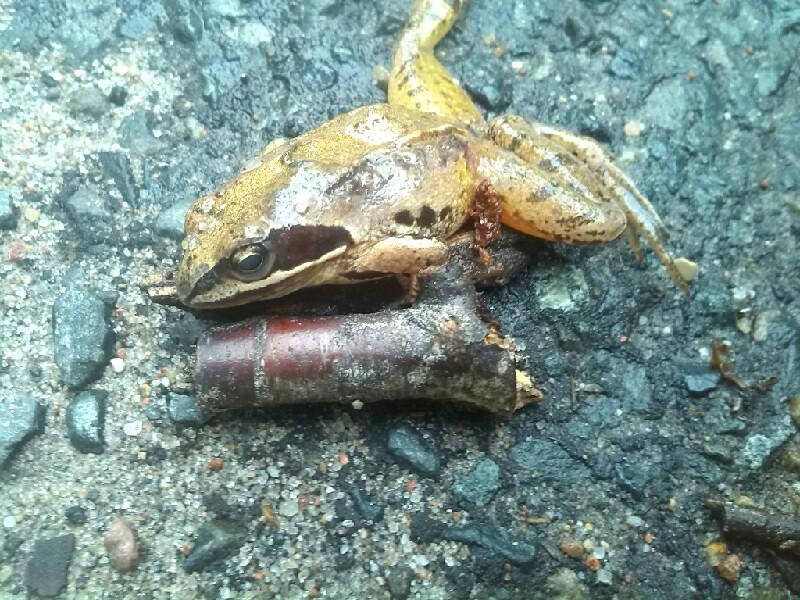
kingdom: Animalia
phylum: Chordata
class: Amphibia
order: Anura
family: Ranidae
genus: Rana
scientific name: Rana arvalis
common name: Moor frog
